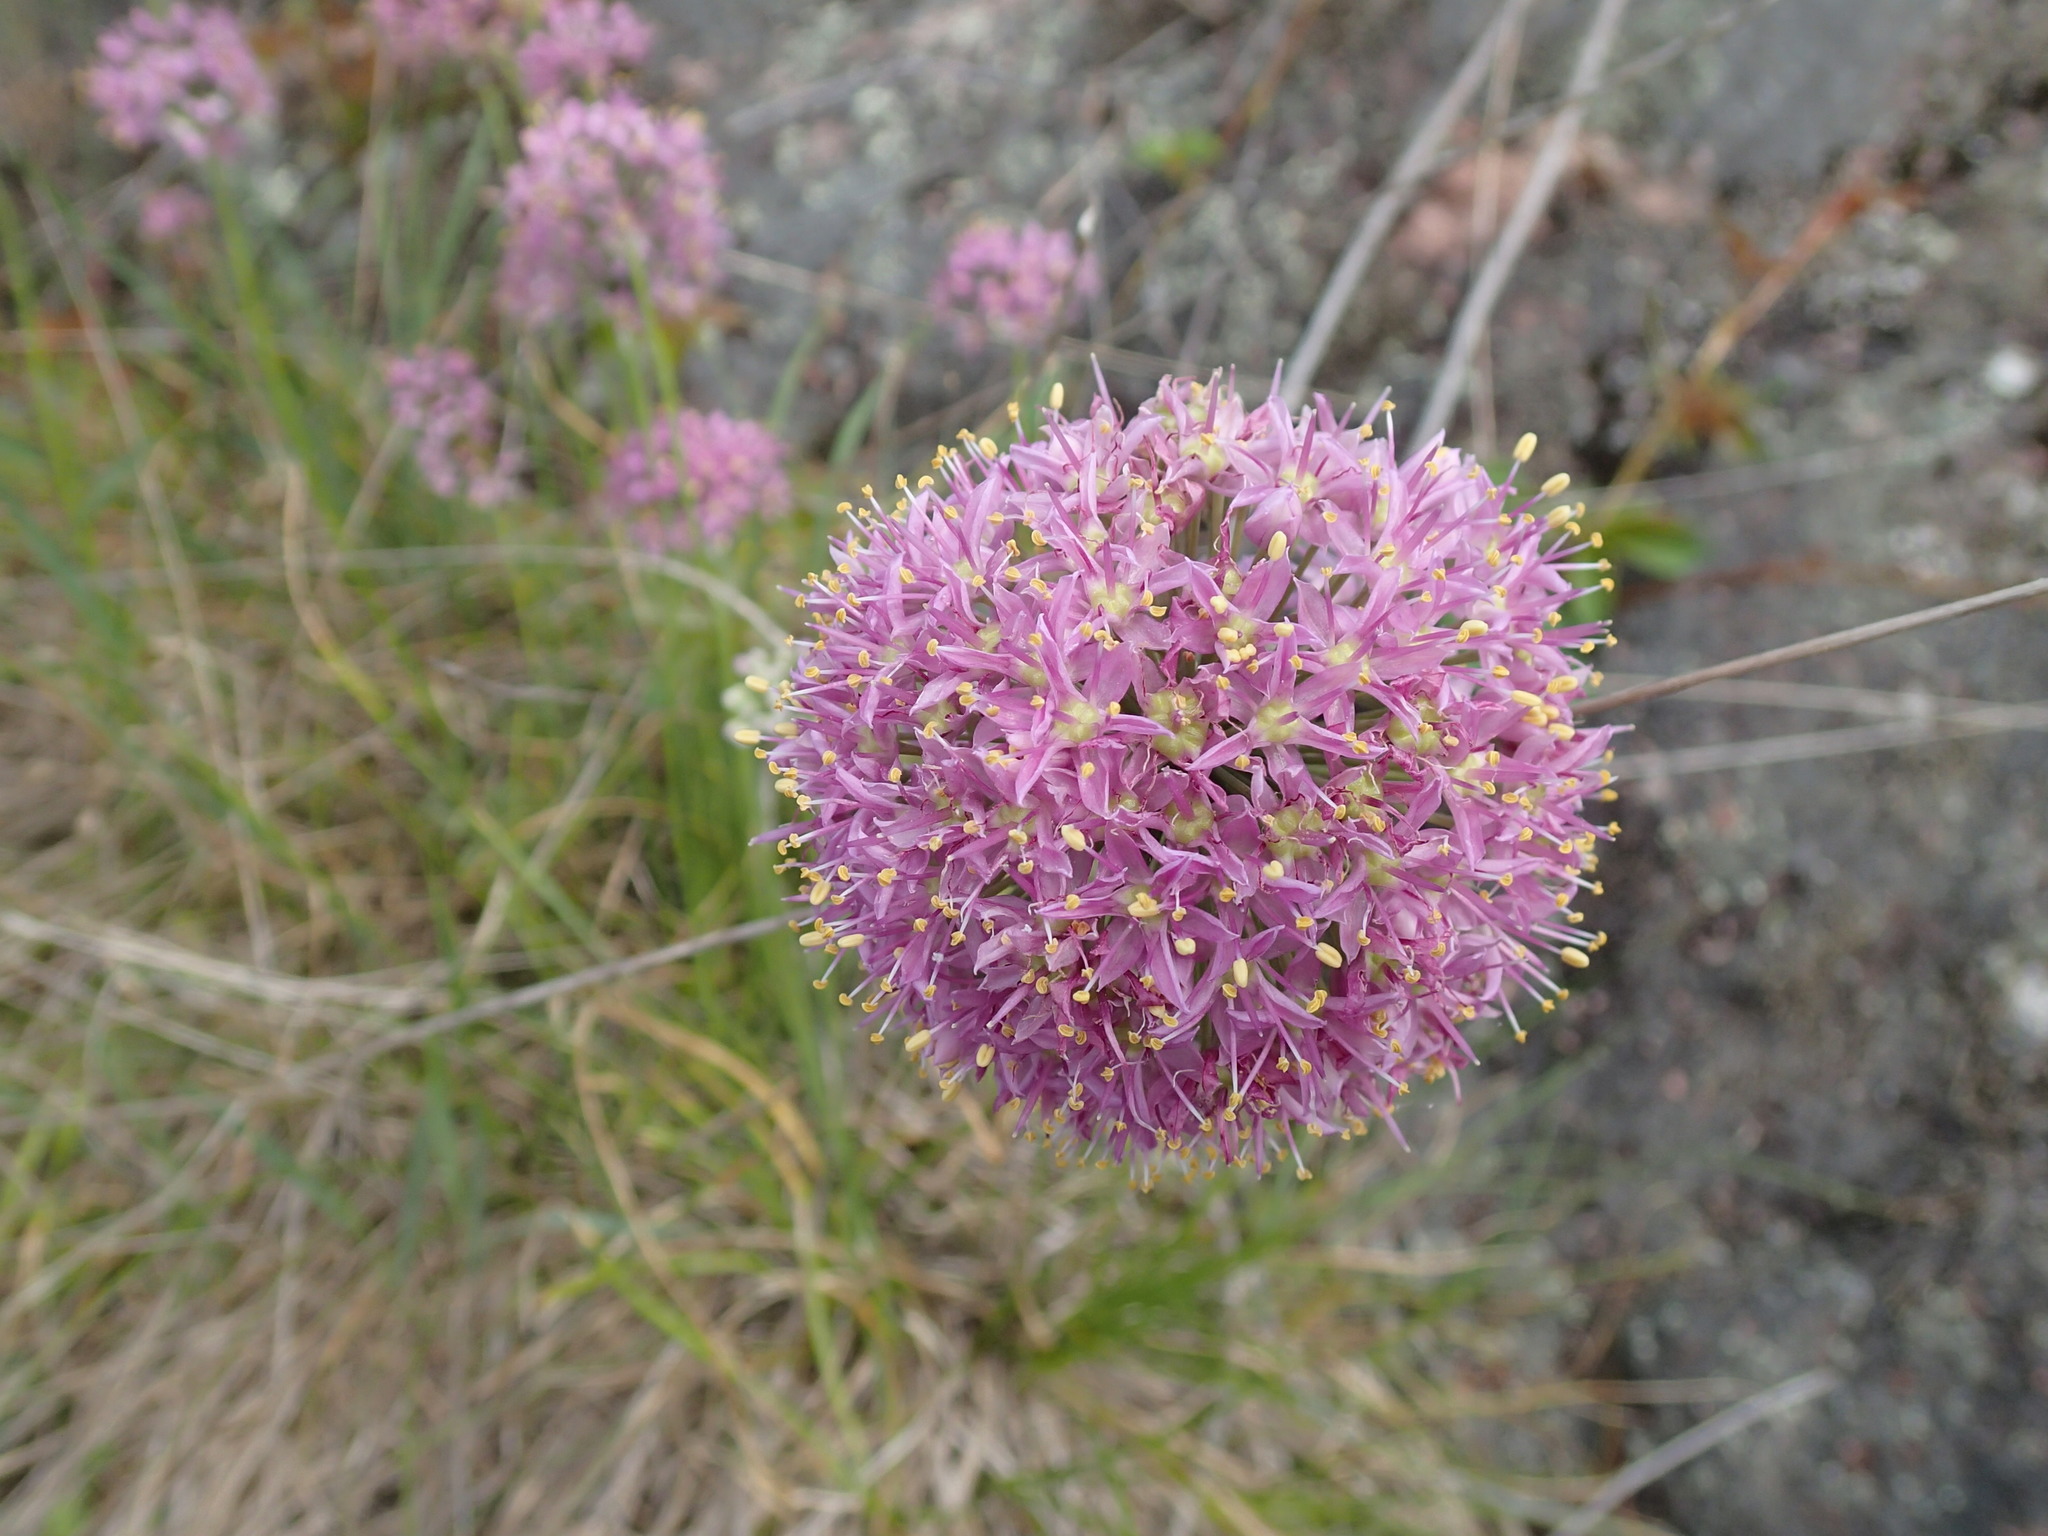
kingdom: Plantae
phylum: Tracheophyta
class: Liliopsida
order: Asparagales
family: Amaryllidaceae
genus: Allium
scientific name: Allium stellatum
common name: Autumn onion
